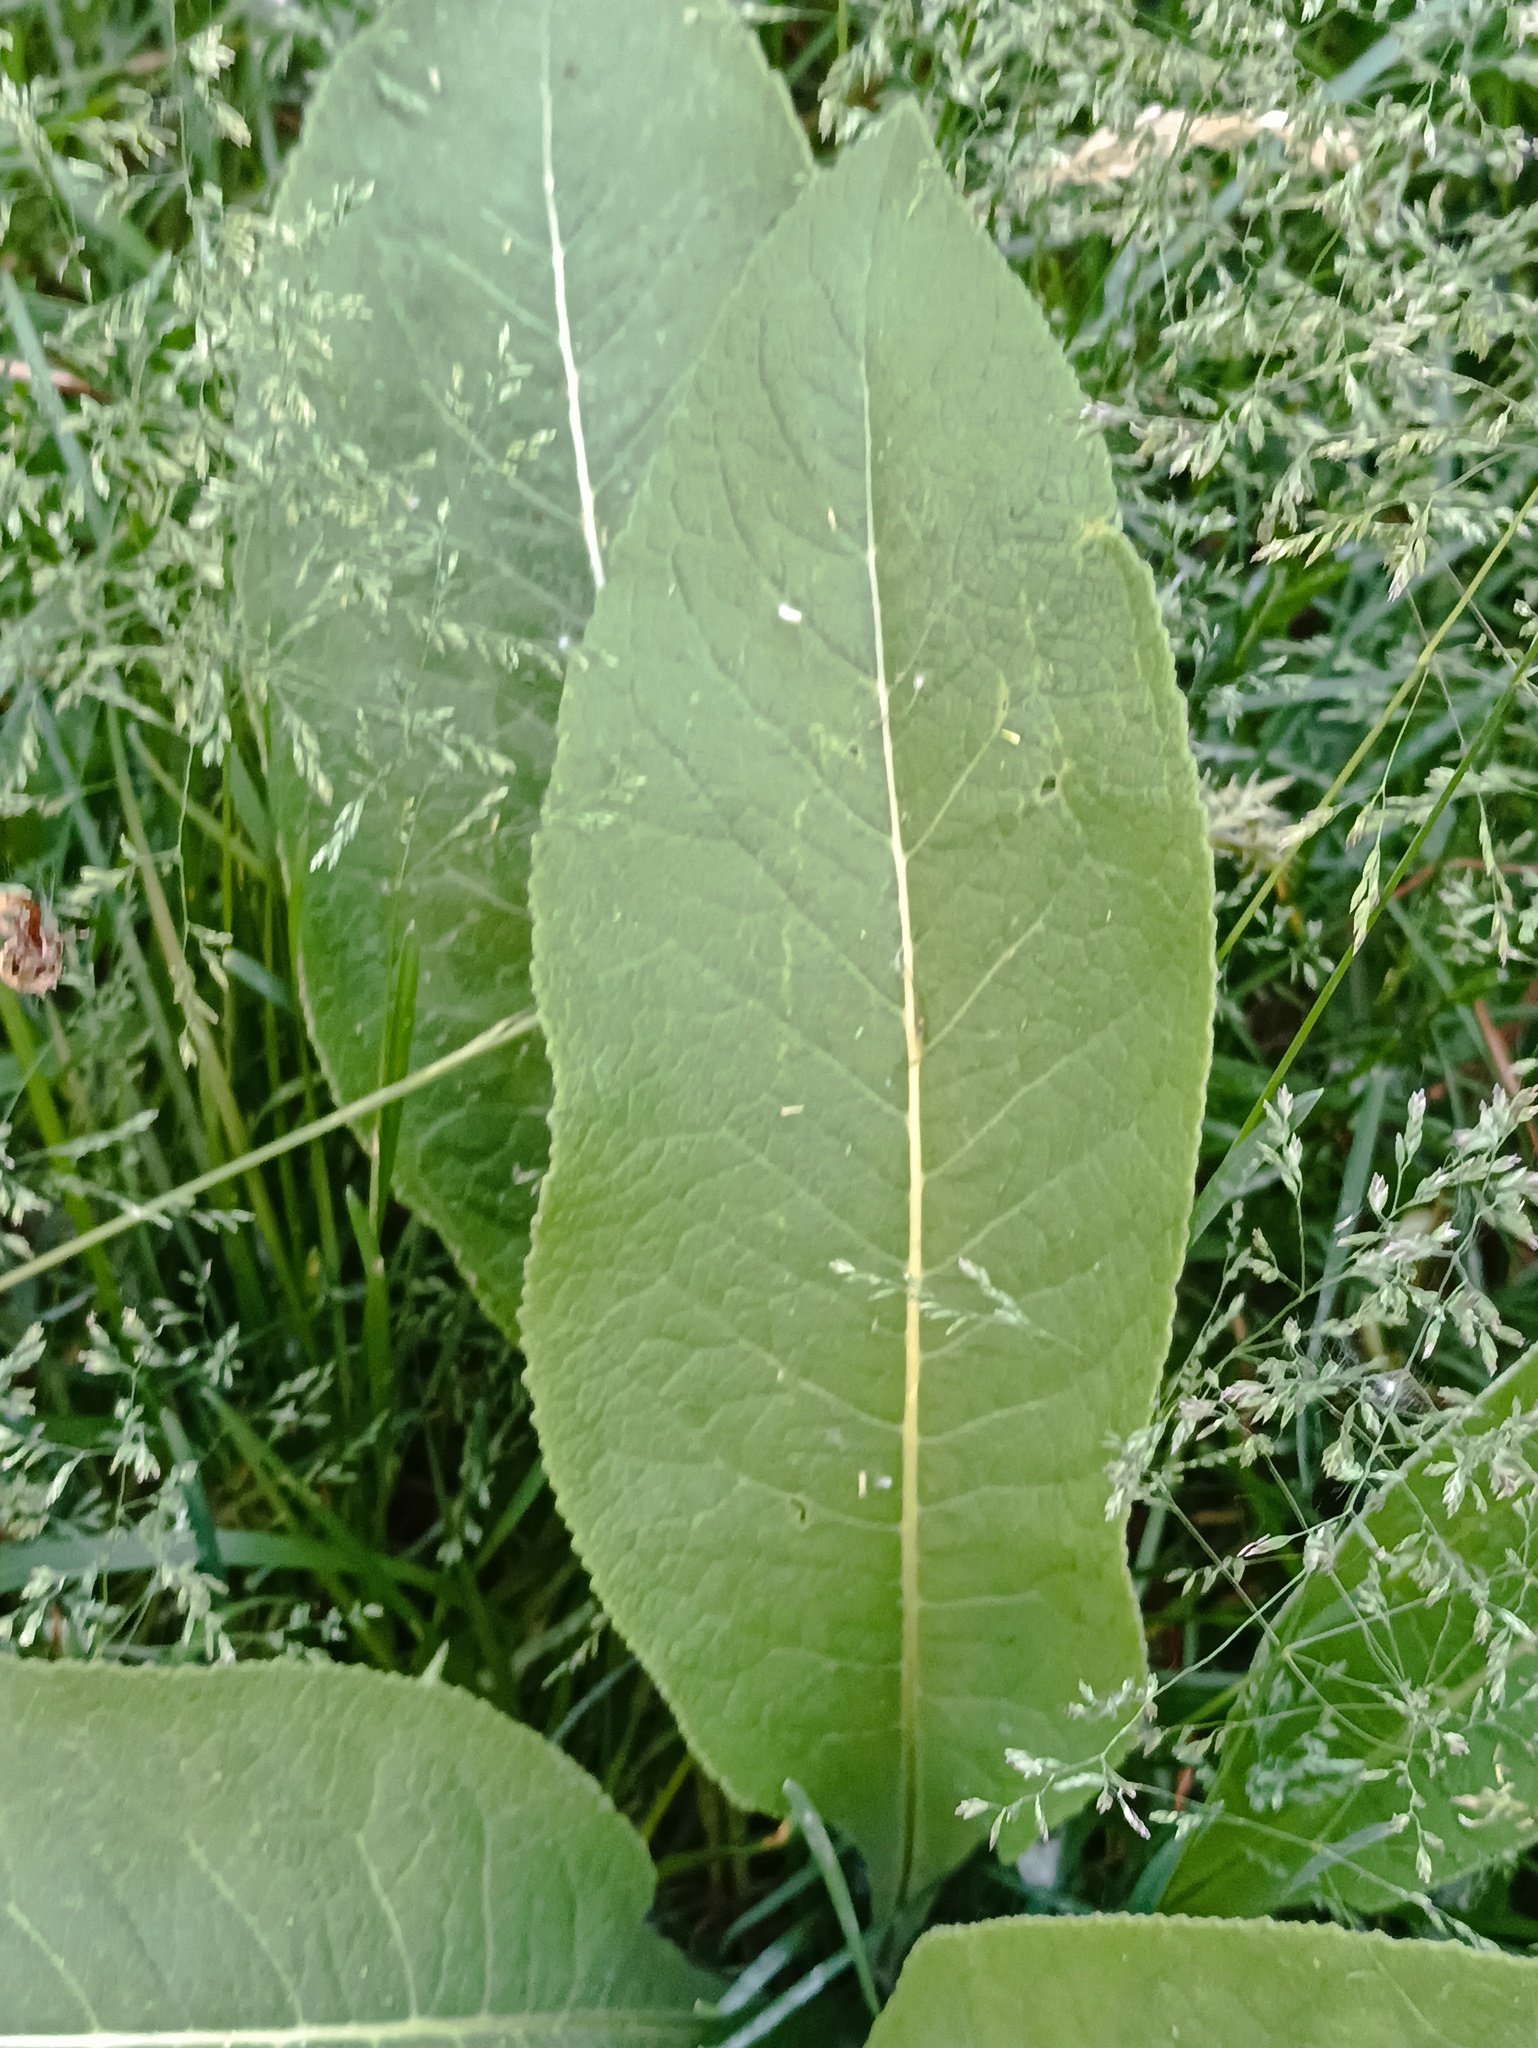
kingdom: Plantae
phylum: Tracheophyta
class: Magnoliopsida
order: Asterales
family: Asteraceae
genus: Inula
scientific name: Inula helenium
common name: Elecampane
